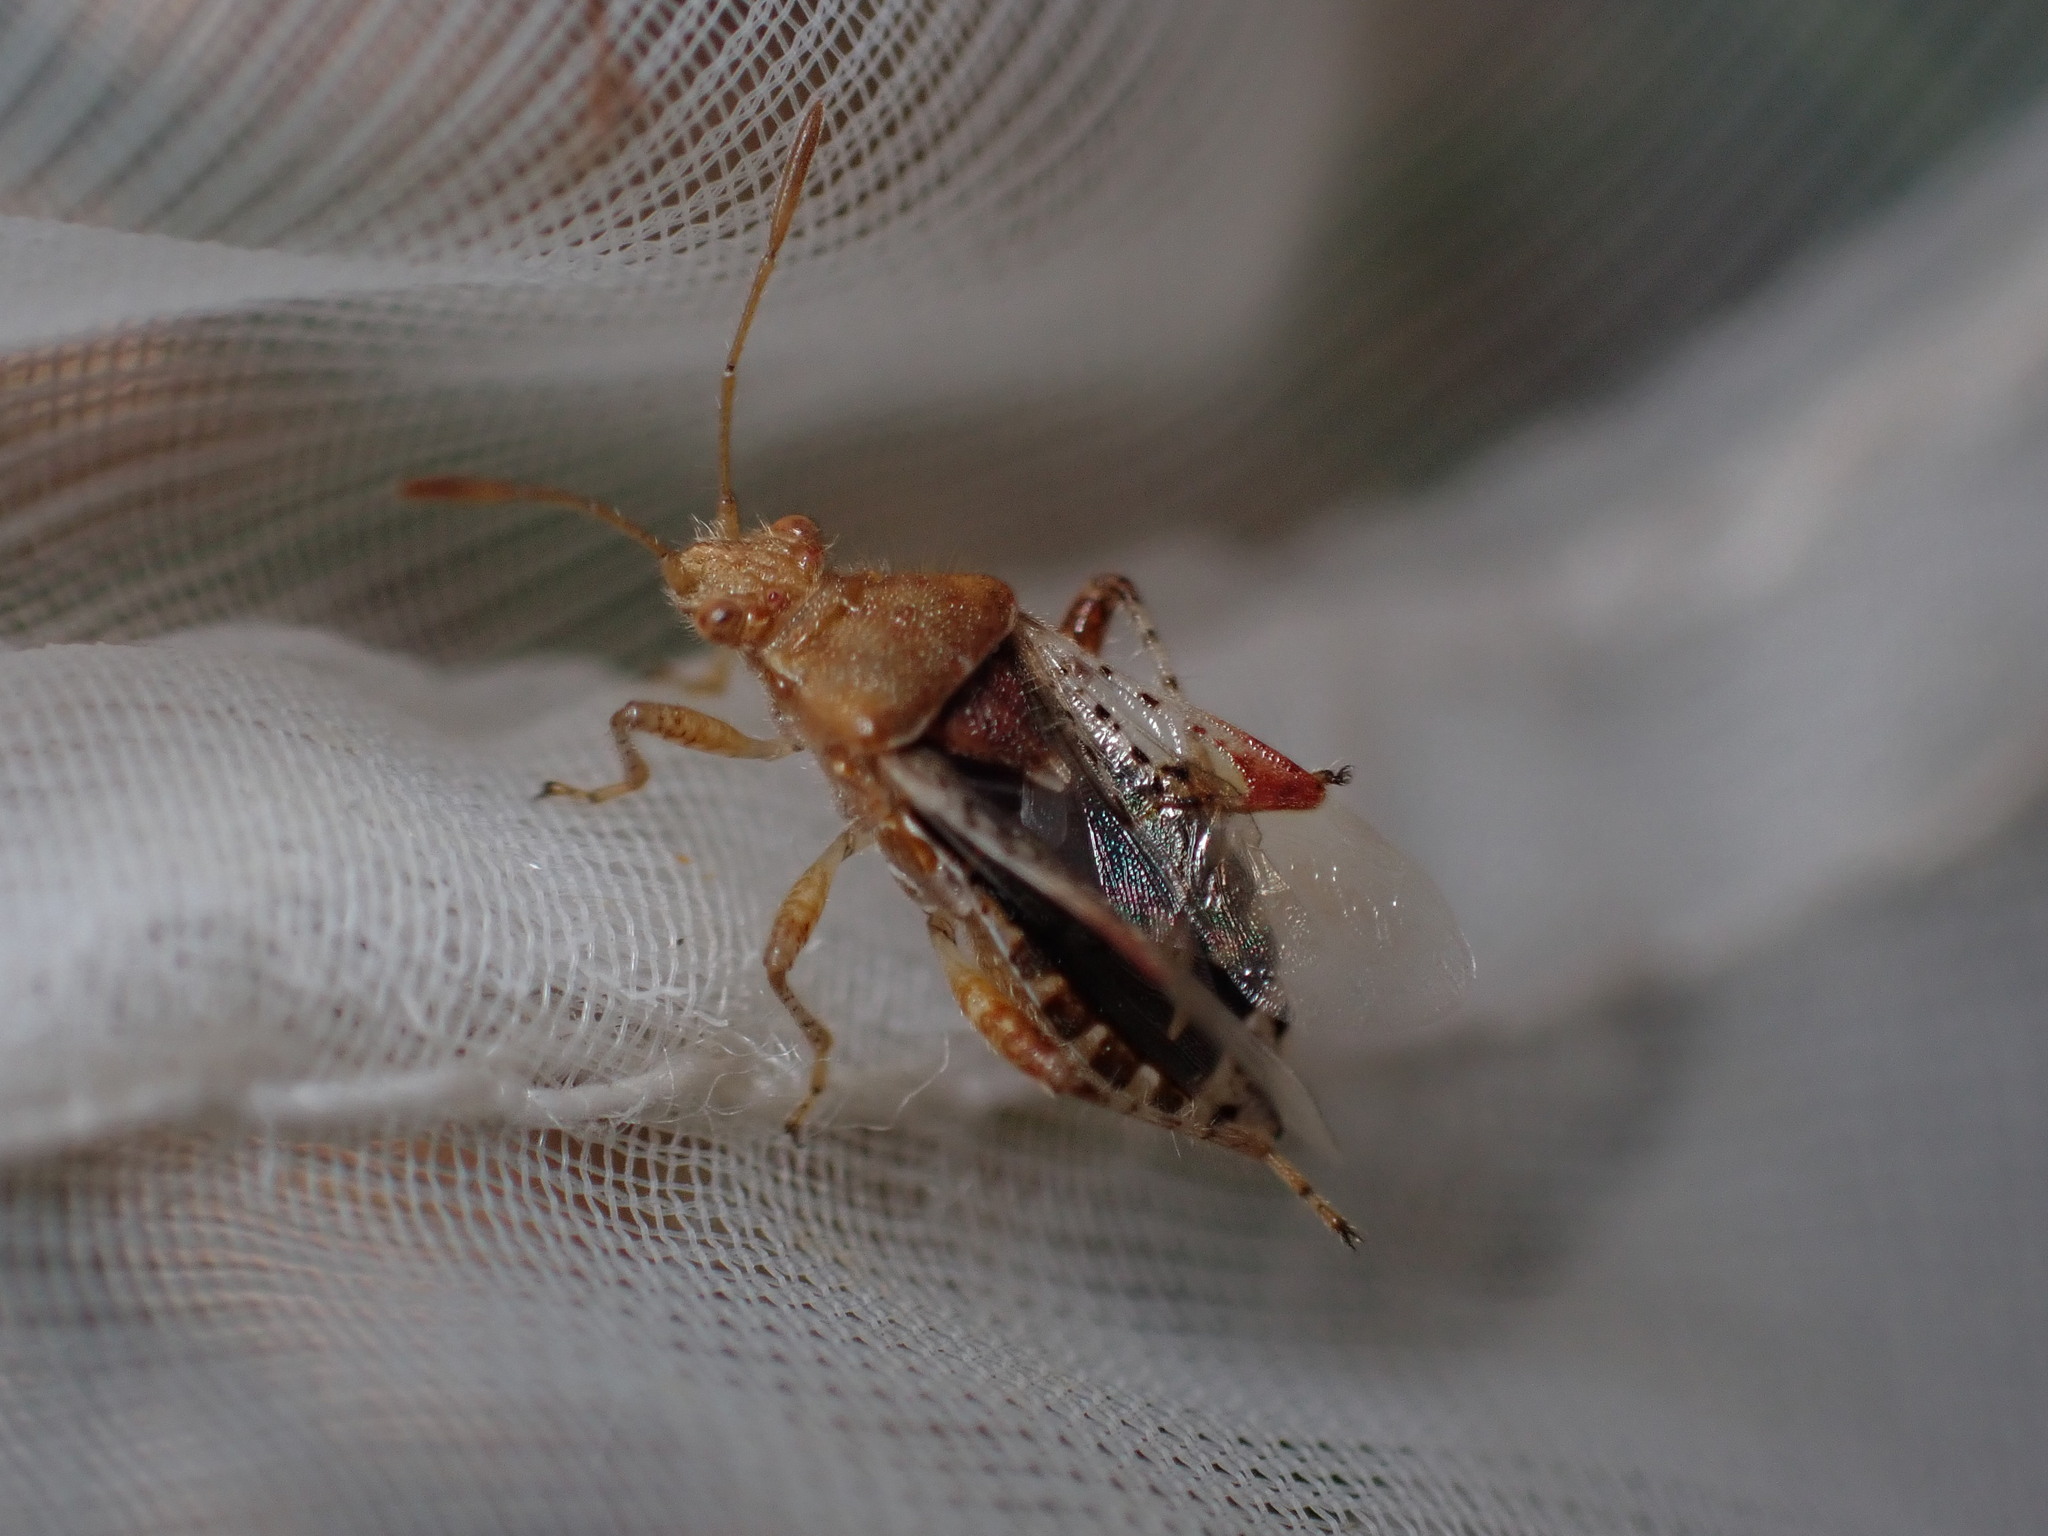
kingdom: Animalia
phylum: Arthropoda
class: Insecta
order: Hemiptera
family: Rhopalidae
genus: Rhopalus
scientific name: Rhopalus subrufus
